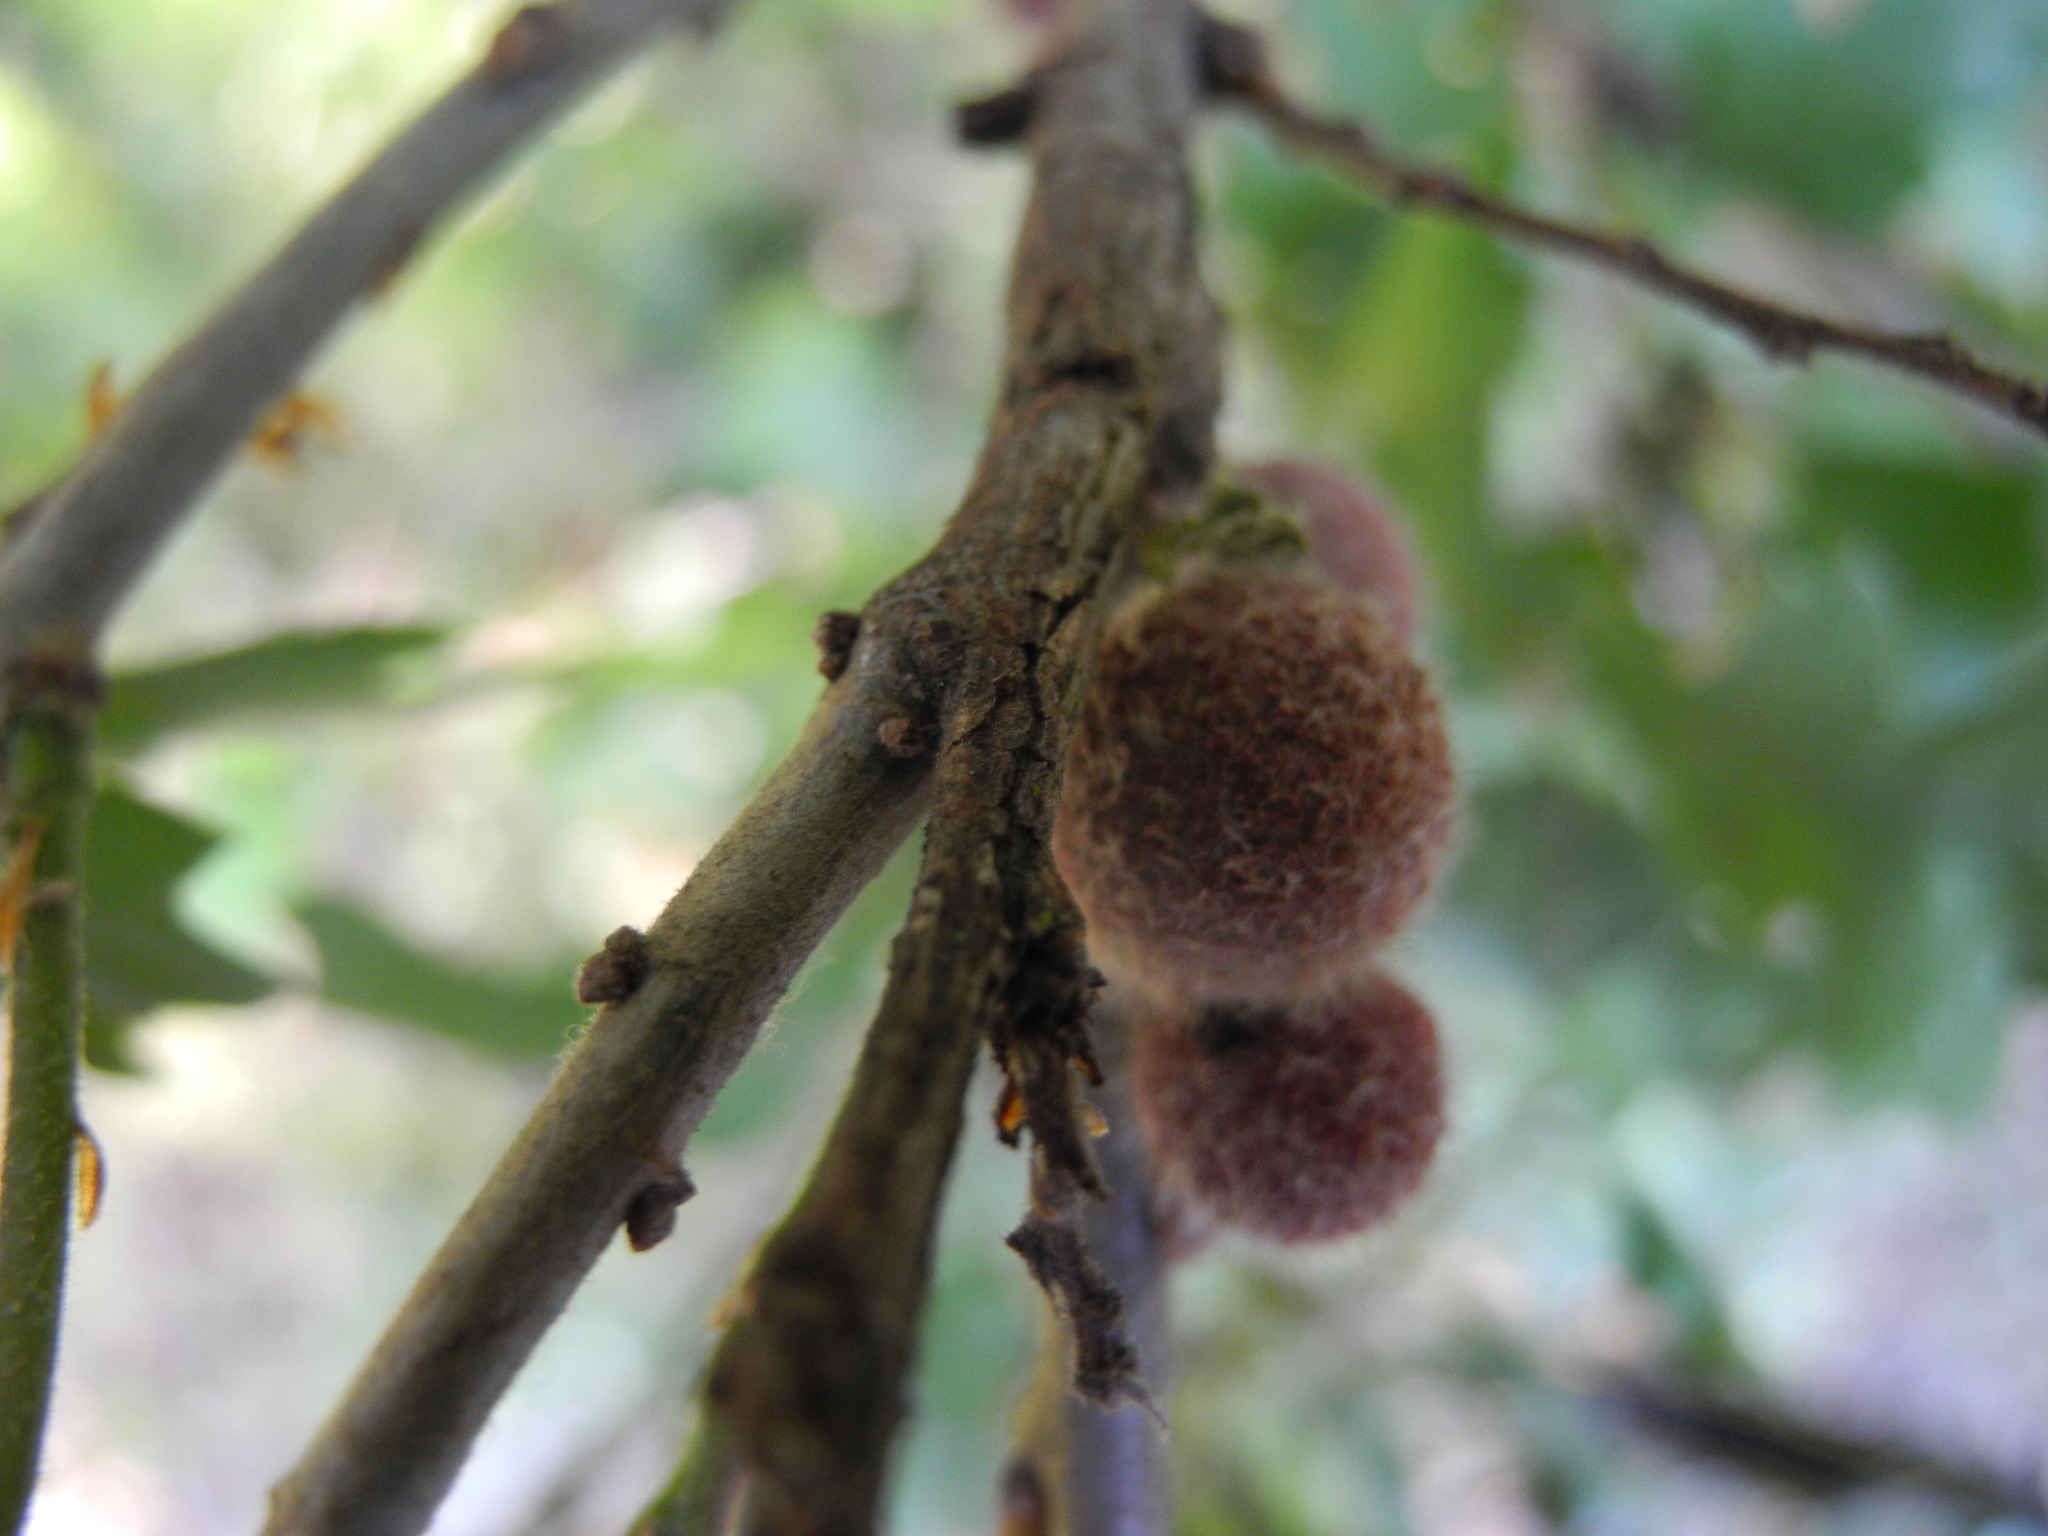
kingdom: Animalia
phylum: Arthropoda
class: Insecta
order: Hymenoptera
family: Cynipidae
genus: Burnettweldia
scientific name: Burnettweldia
